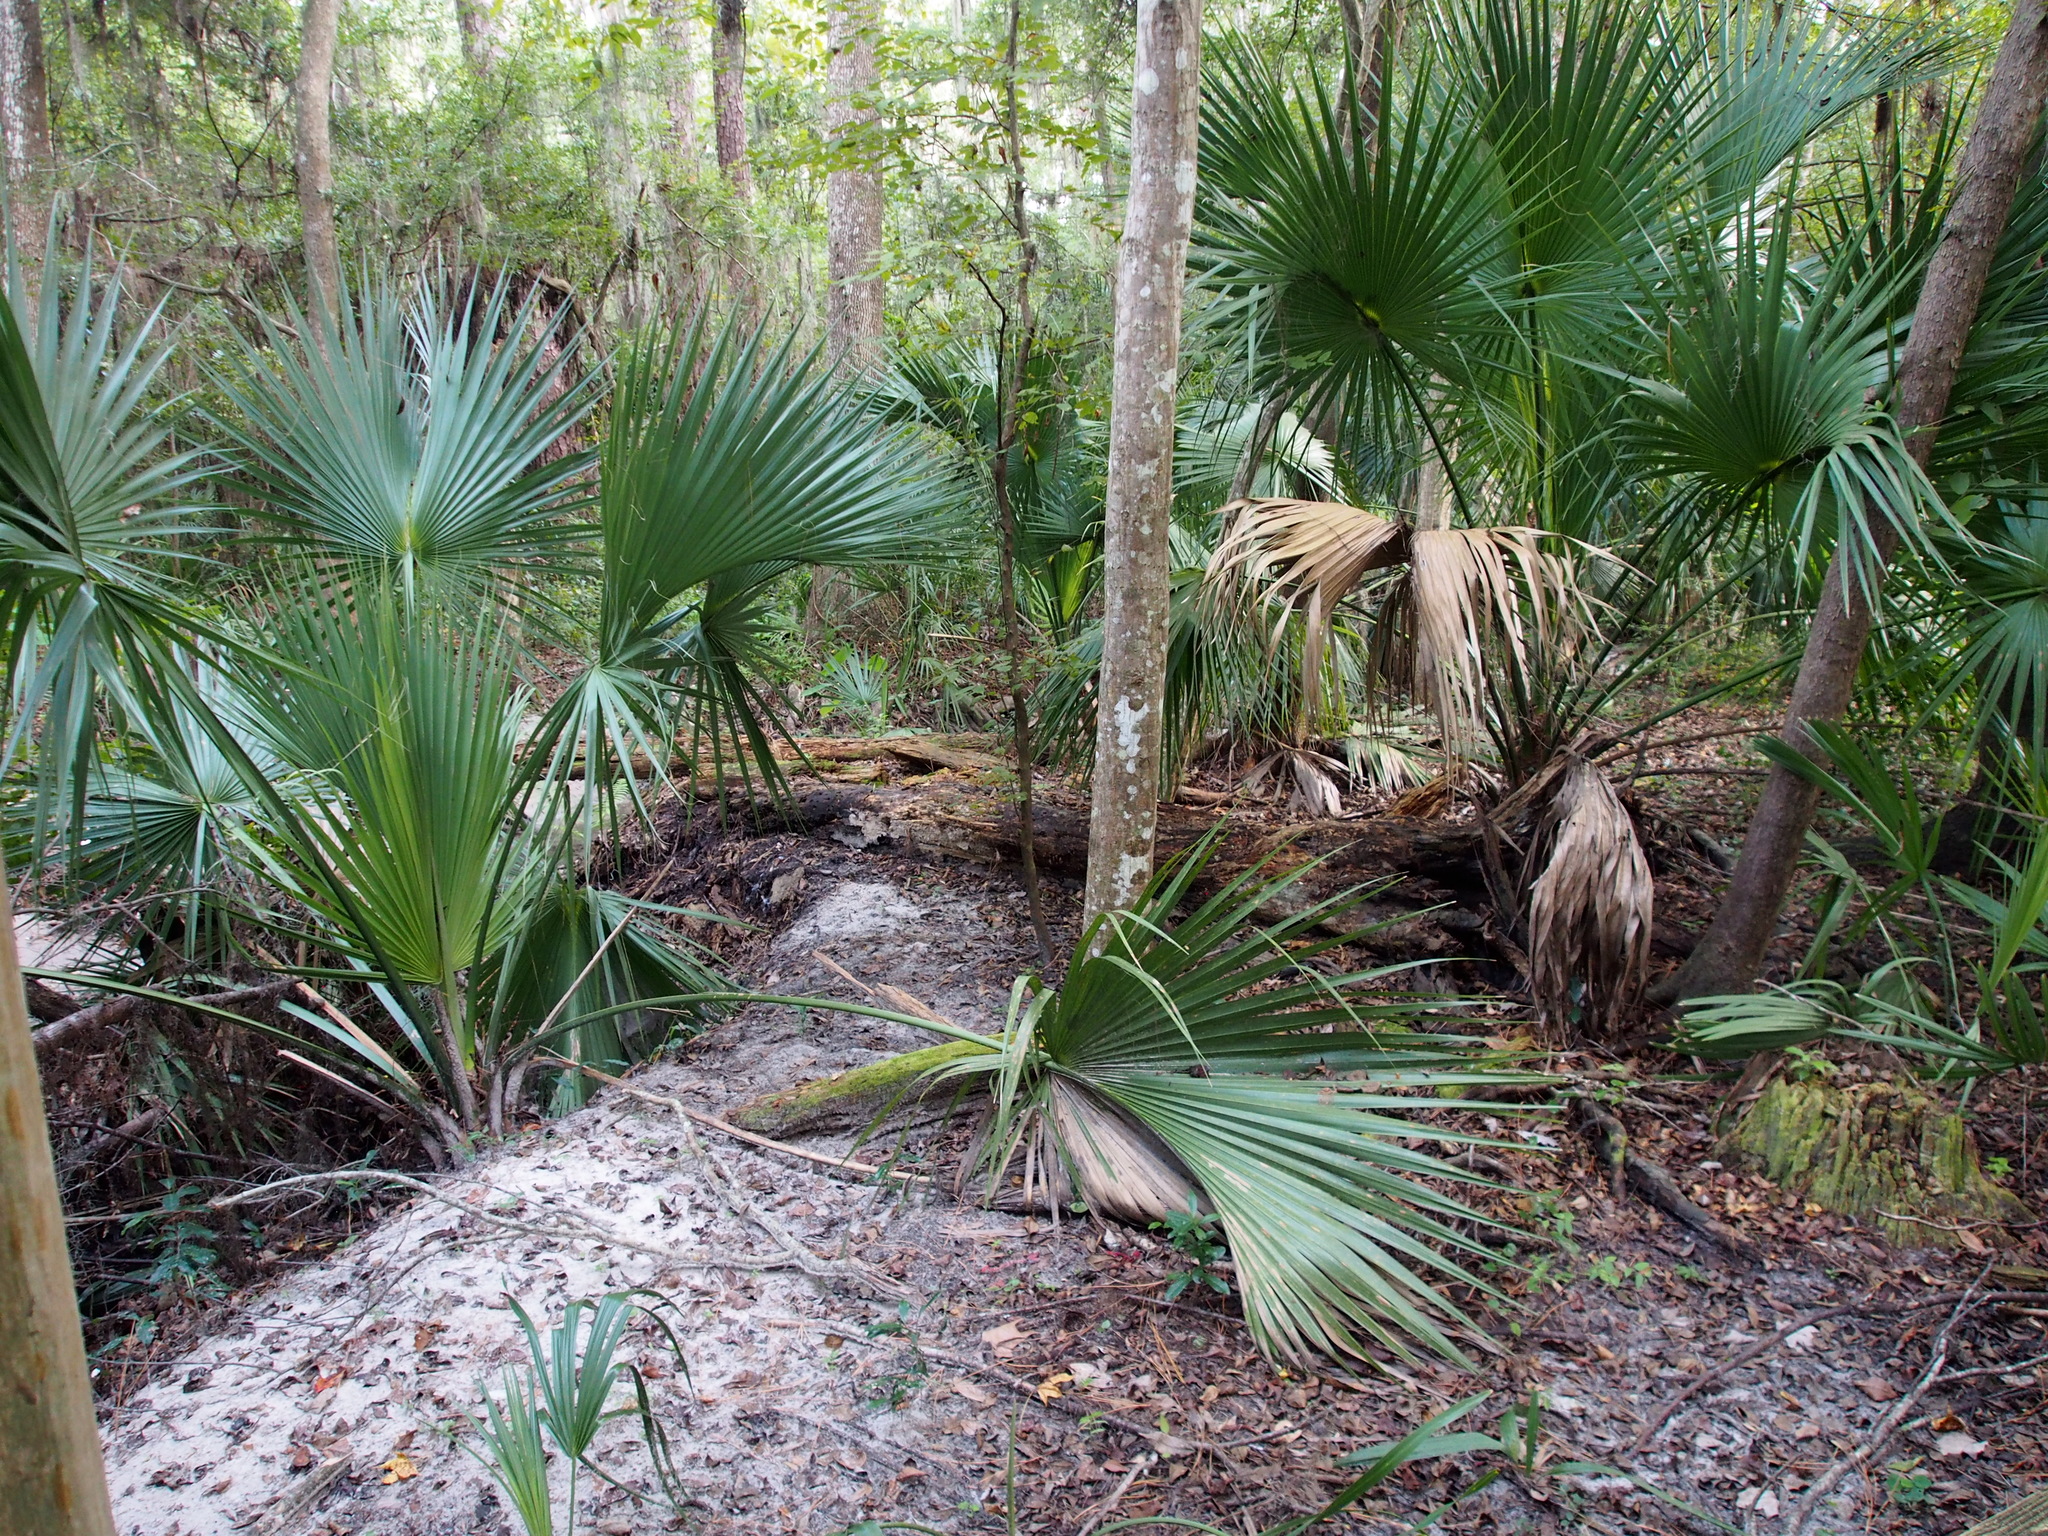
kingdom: Plantae
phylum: Tracheophyta
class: Liliopsida
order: Arecales
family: Arecaceae
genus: Sabal
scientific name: Sabal palmetto
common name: Blue palmetto
